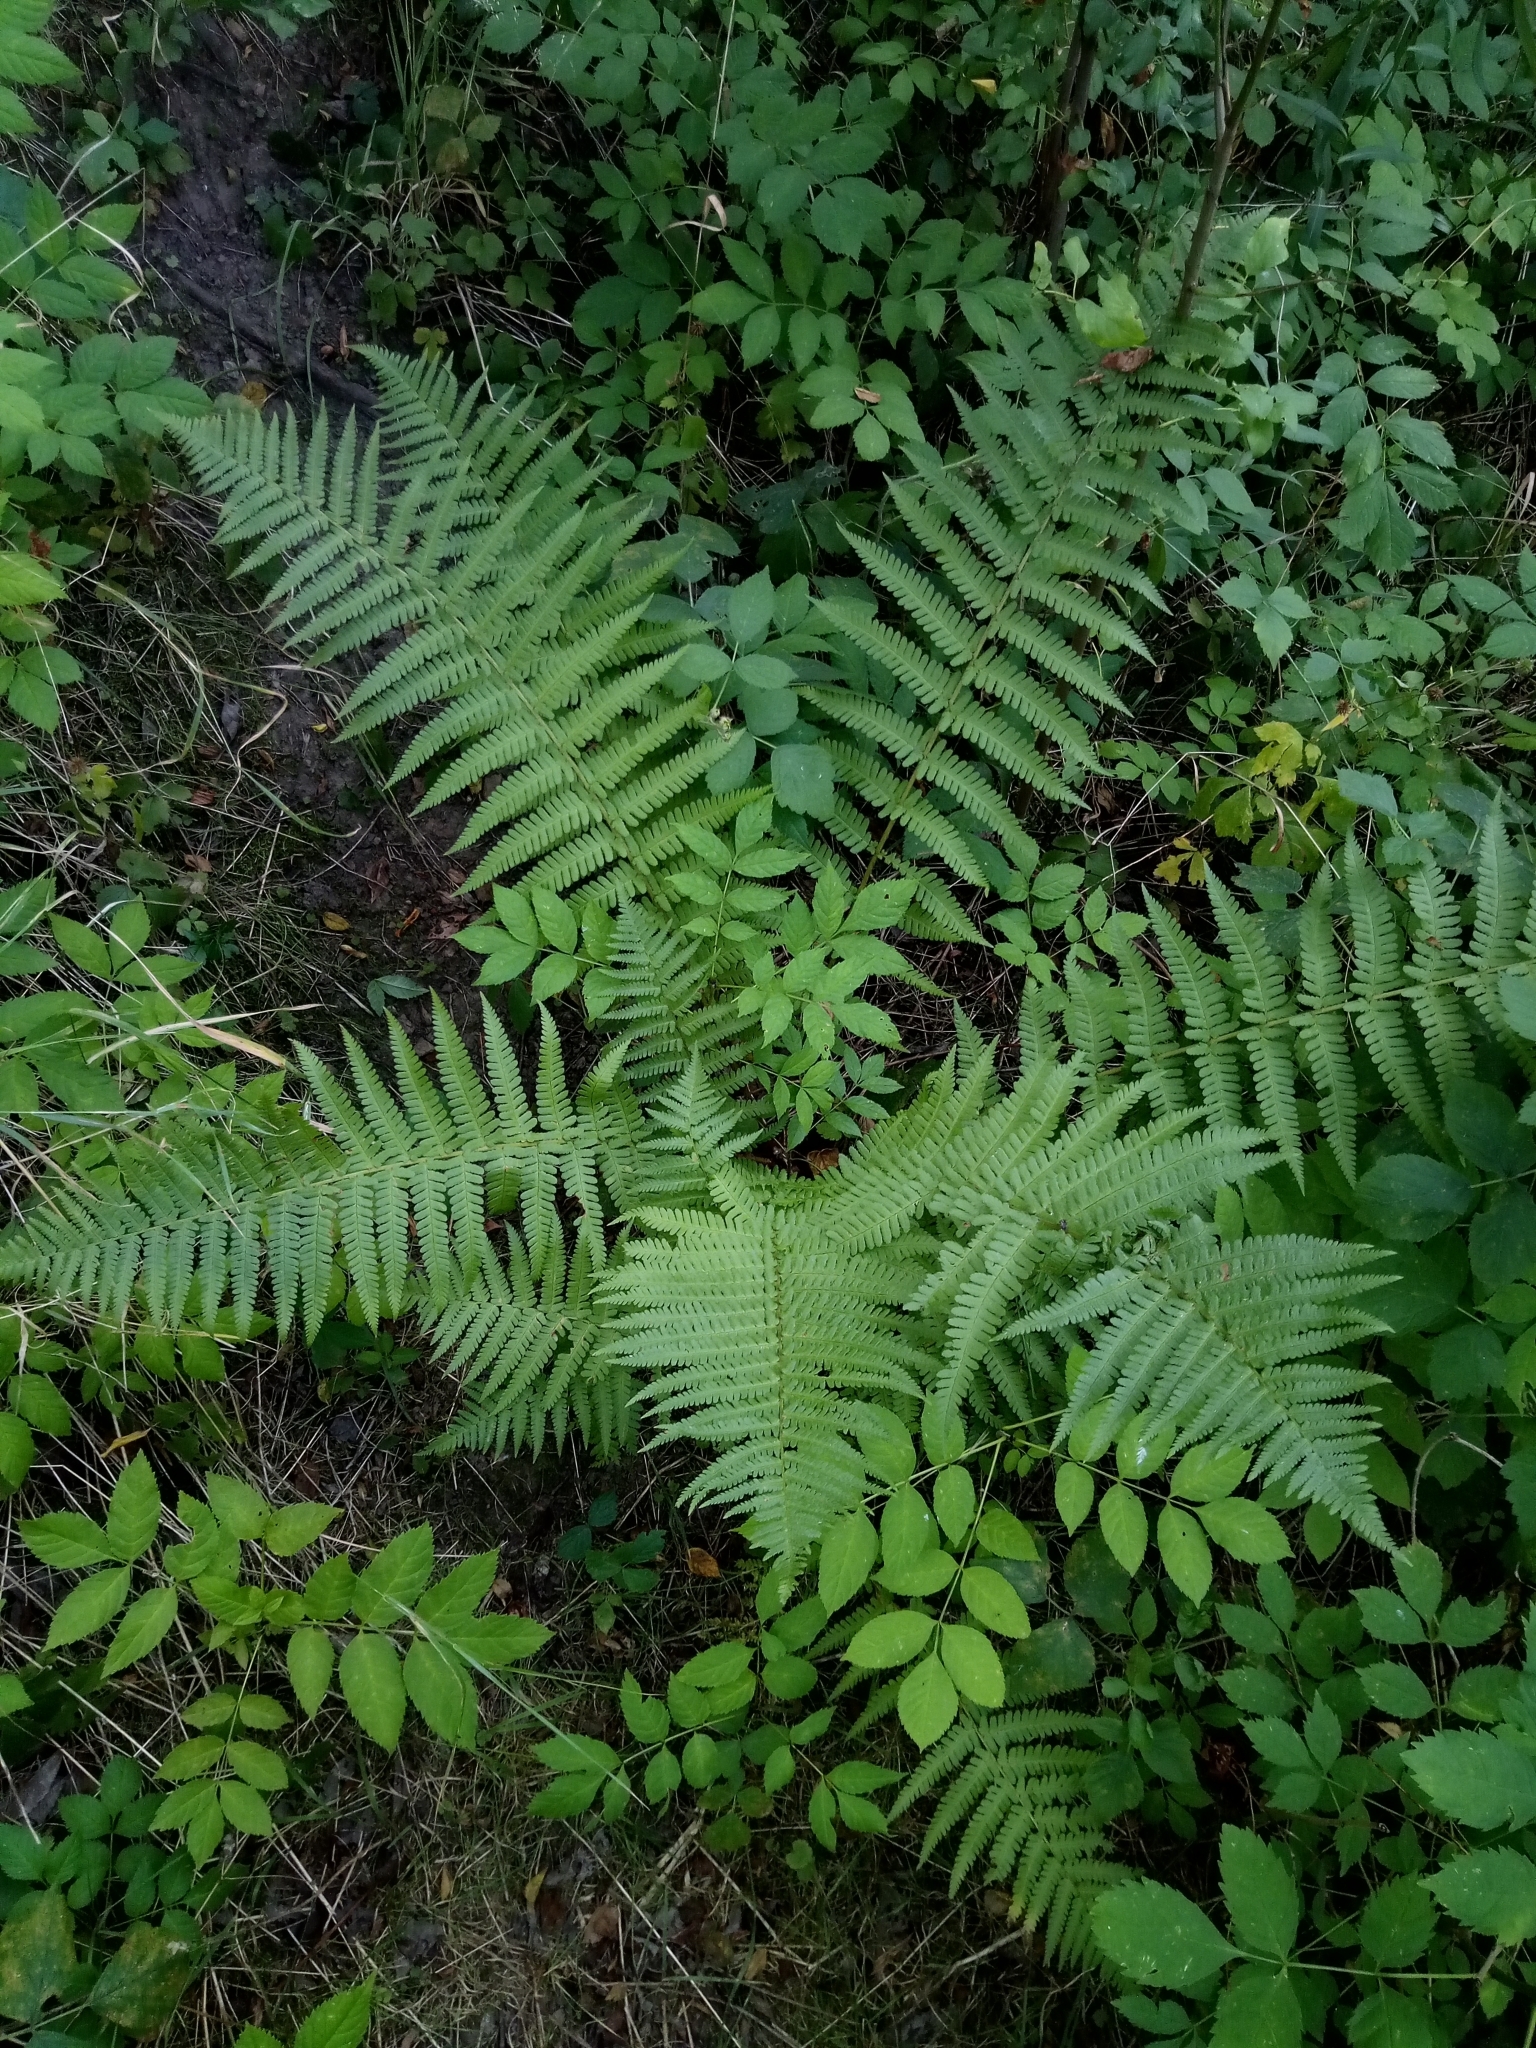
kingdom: Plantae
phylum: Tracheophyta
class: Polypodiopsida
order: Polypodiales
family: Dryopteridaceae
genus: Dryopteris
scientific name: Dryopteris filix-mas
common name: Male fern
